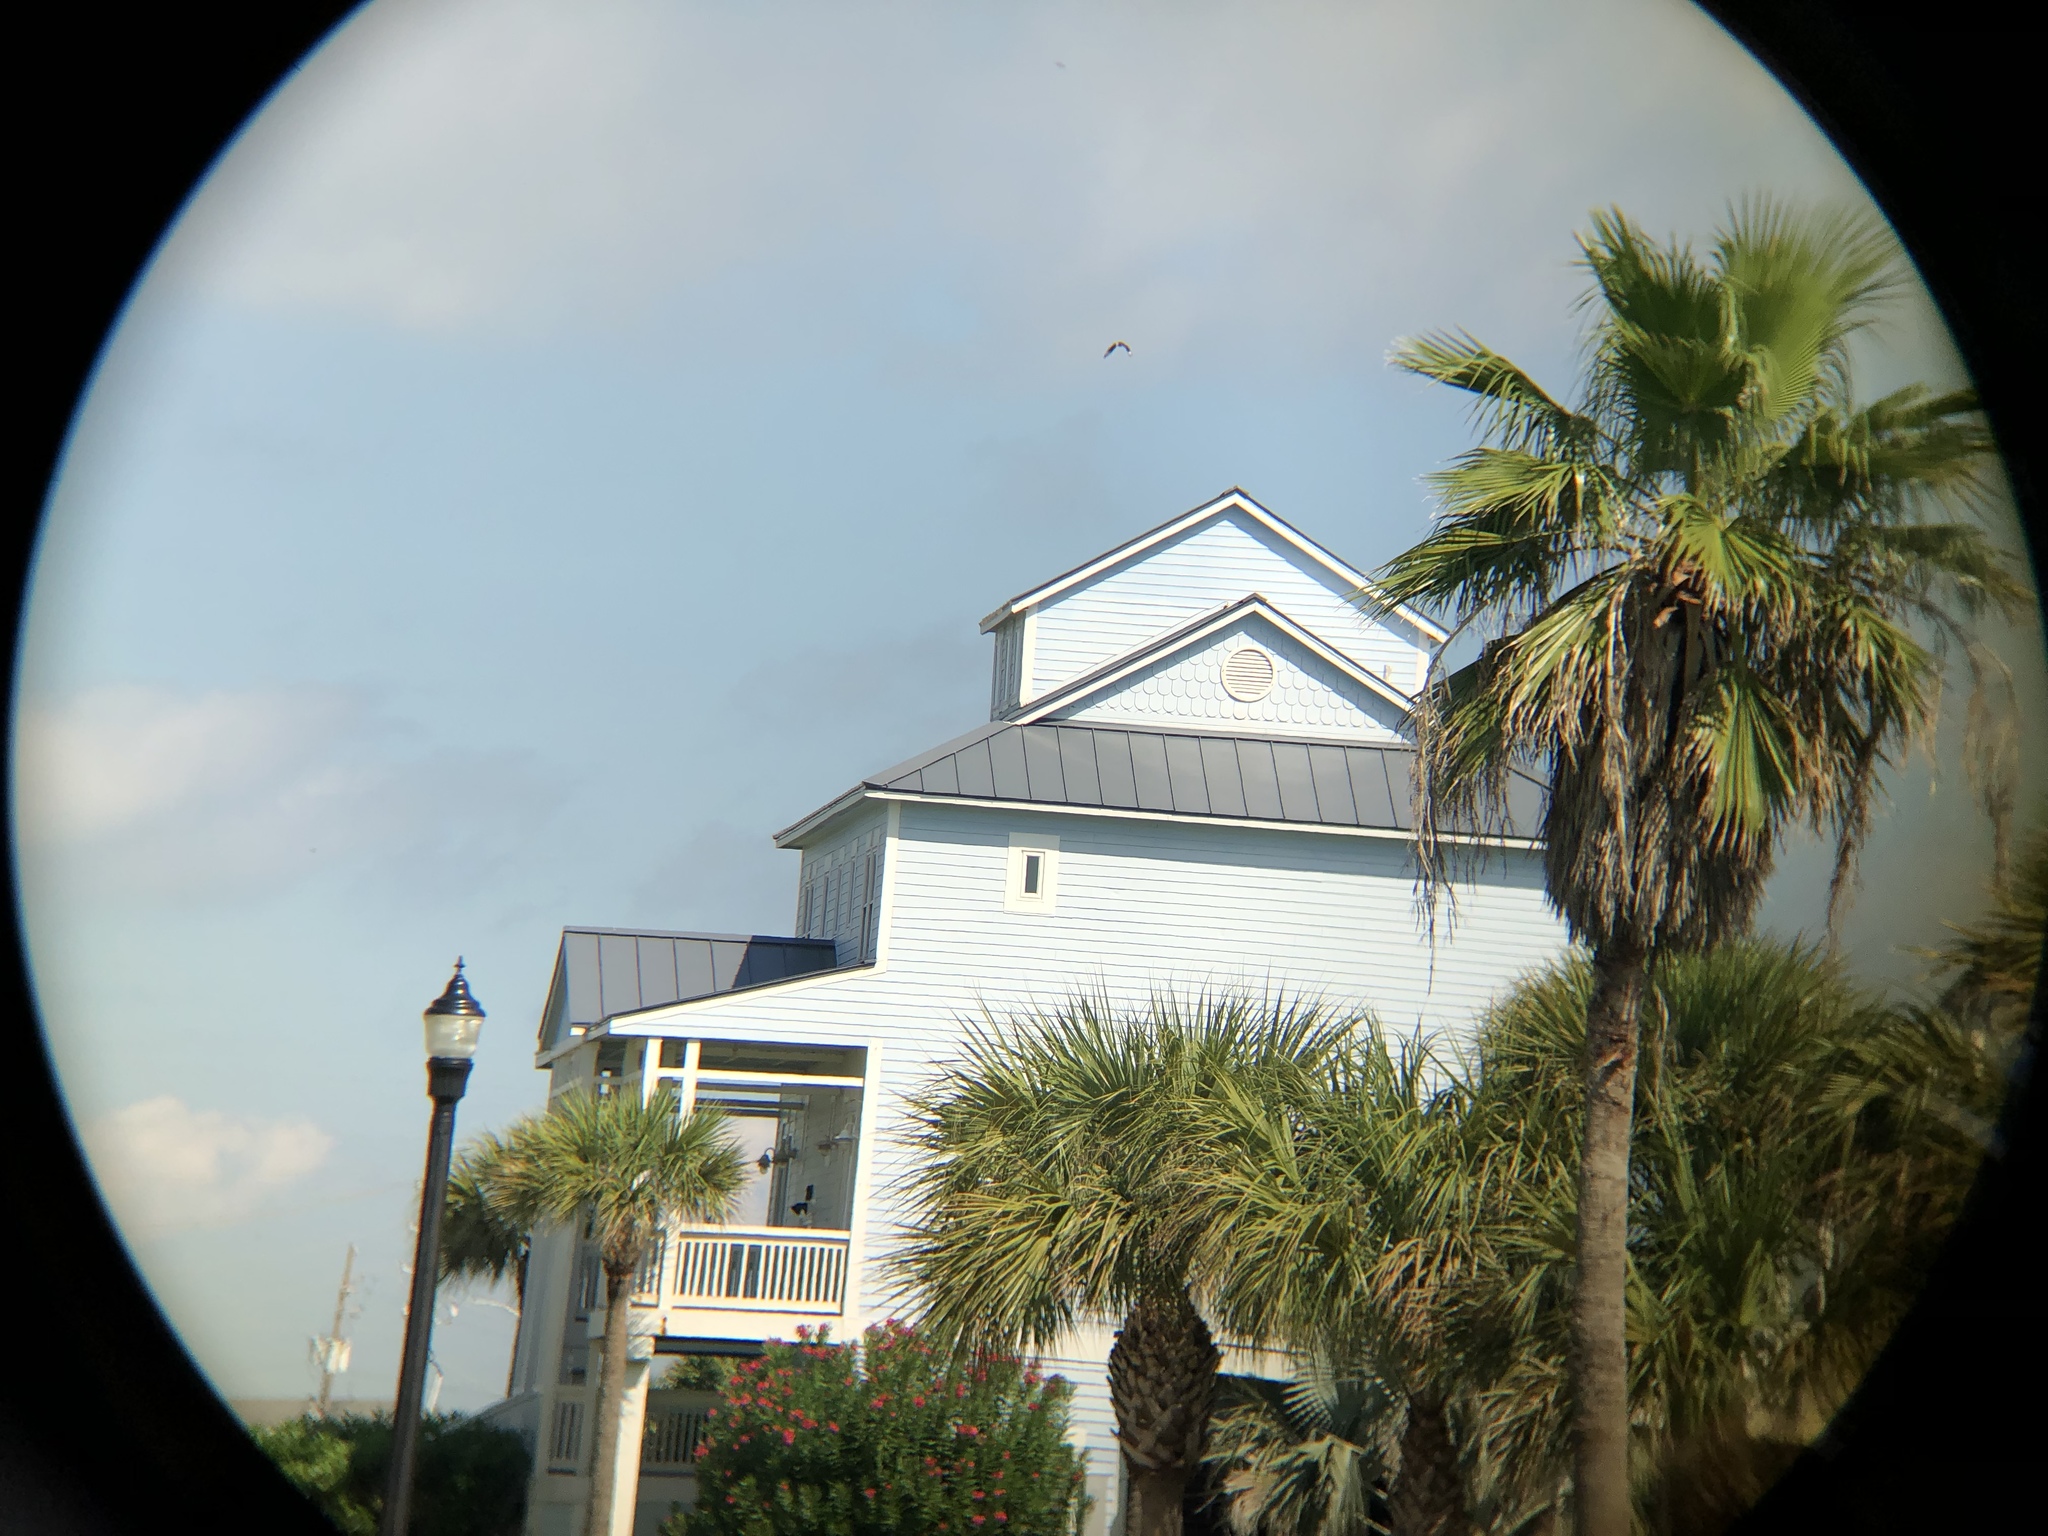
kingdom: Animalia
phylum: Chordata
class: Aves
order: Falconiformes
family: Falconidae
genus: Caracara
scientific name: Caracara plancus
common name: Southern caracara
